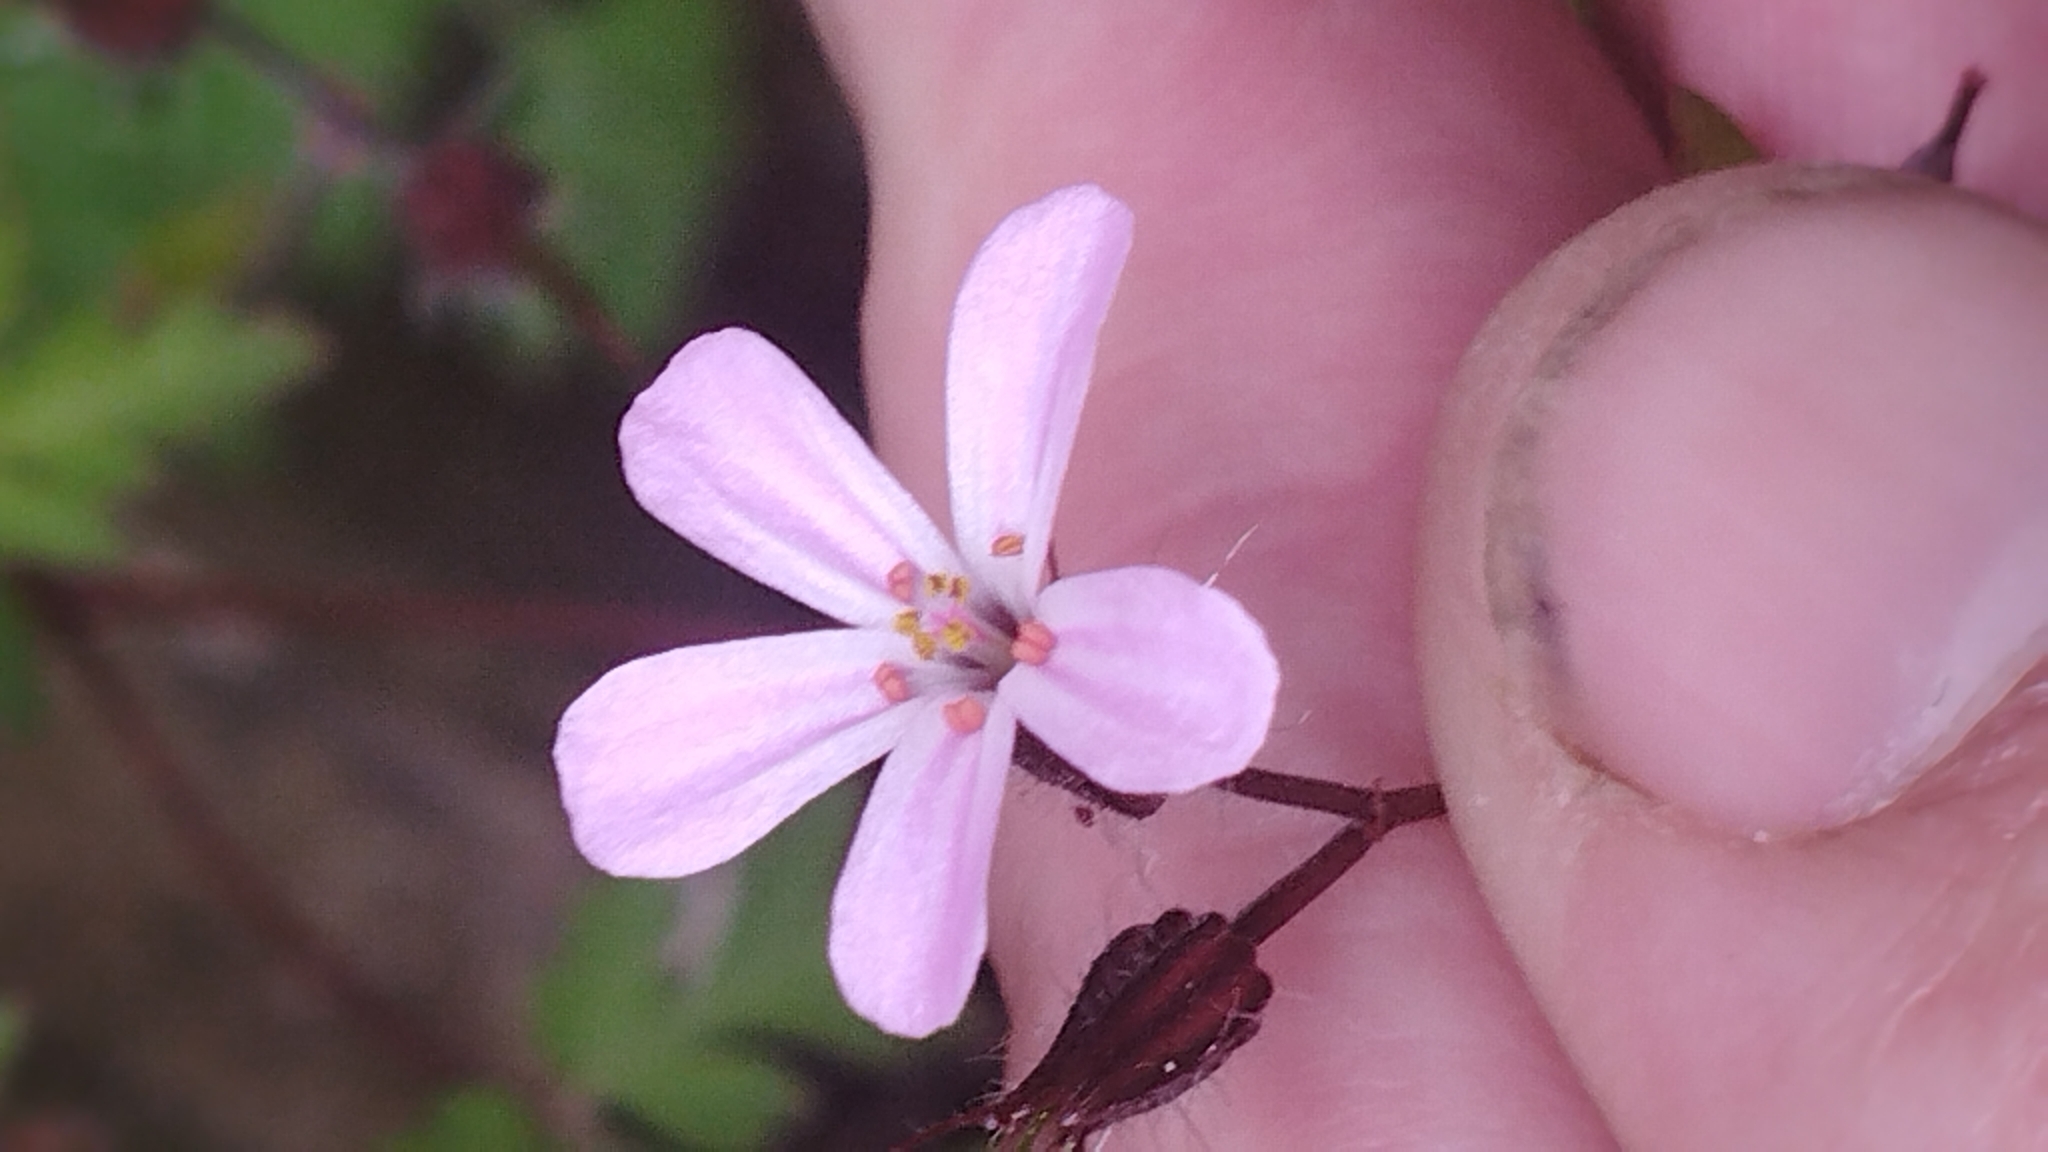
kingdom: Plantae
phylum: Tracheophyta
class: Magnoliopsida
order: Geraniales
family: Geraniaceae
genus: Geranium
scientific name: Geranium yeoi
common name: Greater herb robert
